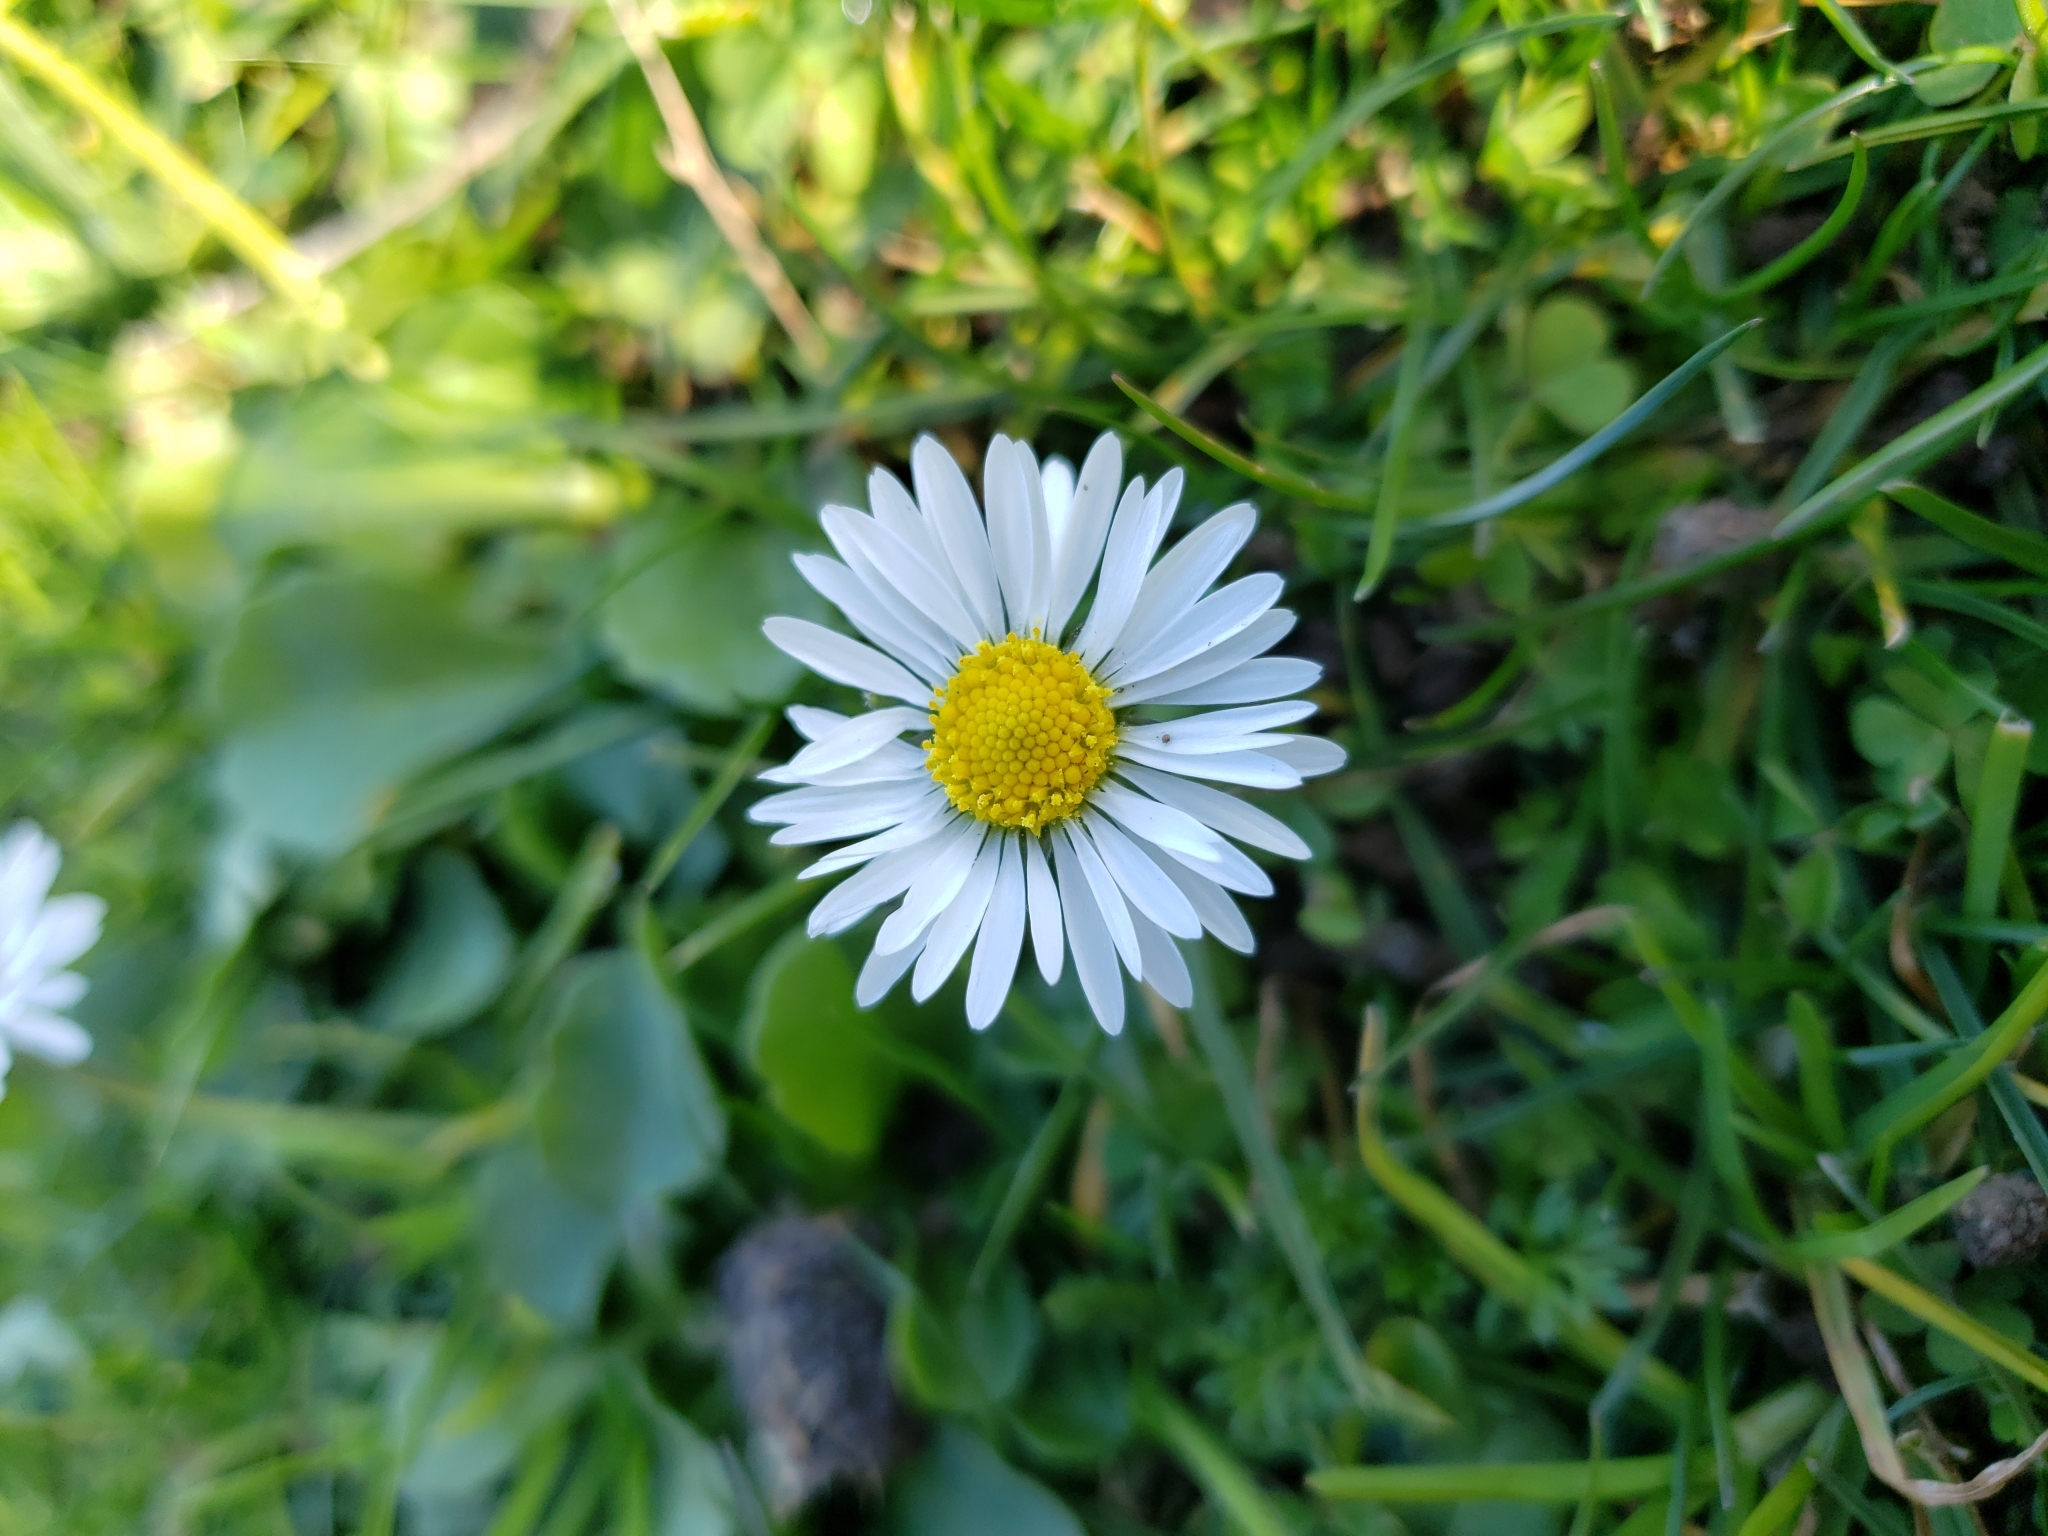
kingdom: Plantae
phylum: Tracheophyta
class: Magnoliopsida
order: Asterales
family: Asteraceae
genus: Bellis
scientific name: Bellis perennis
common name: Lawndaisy
